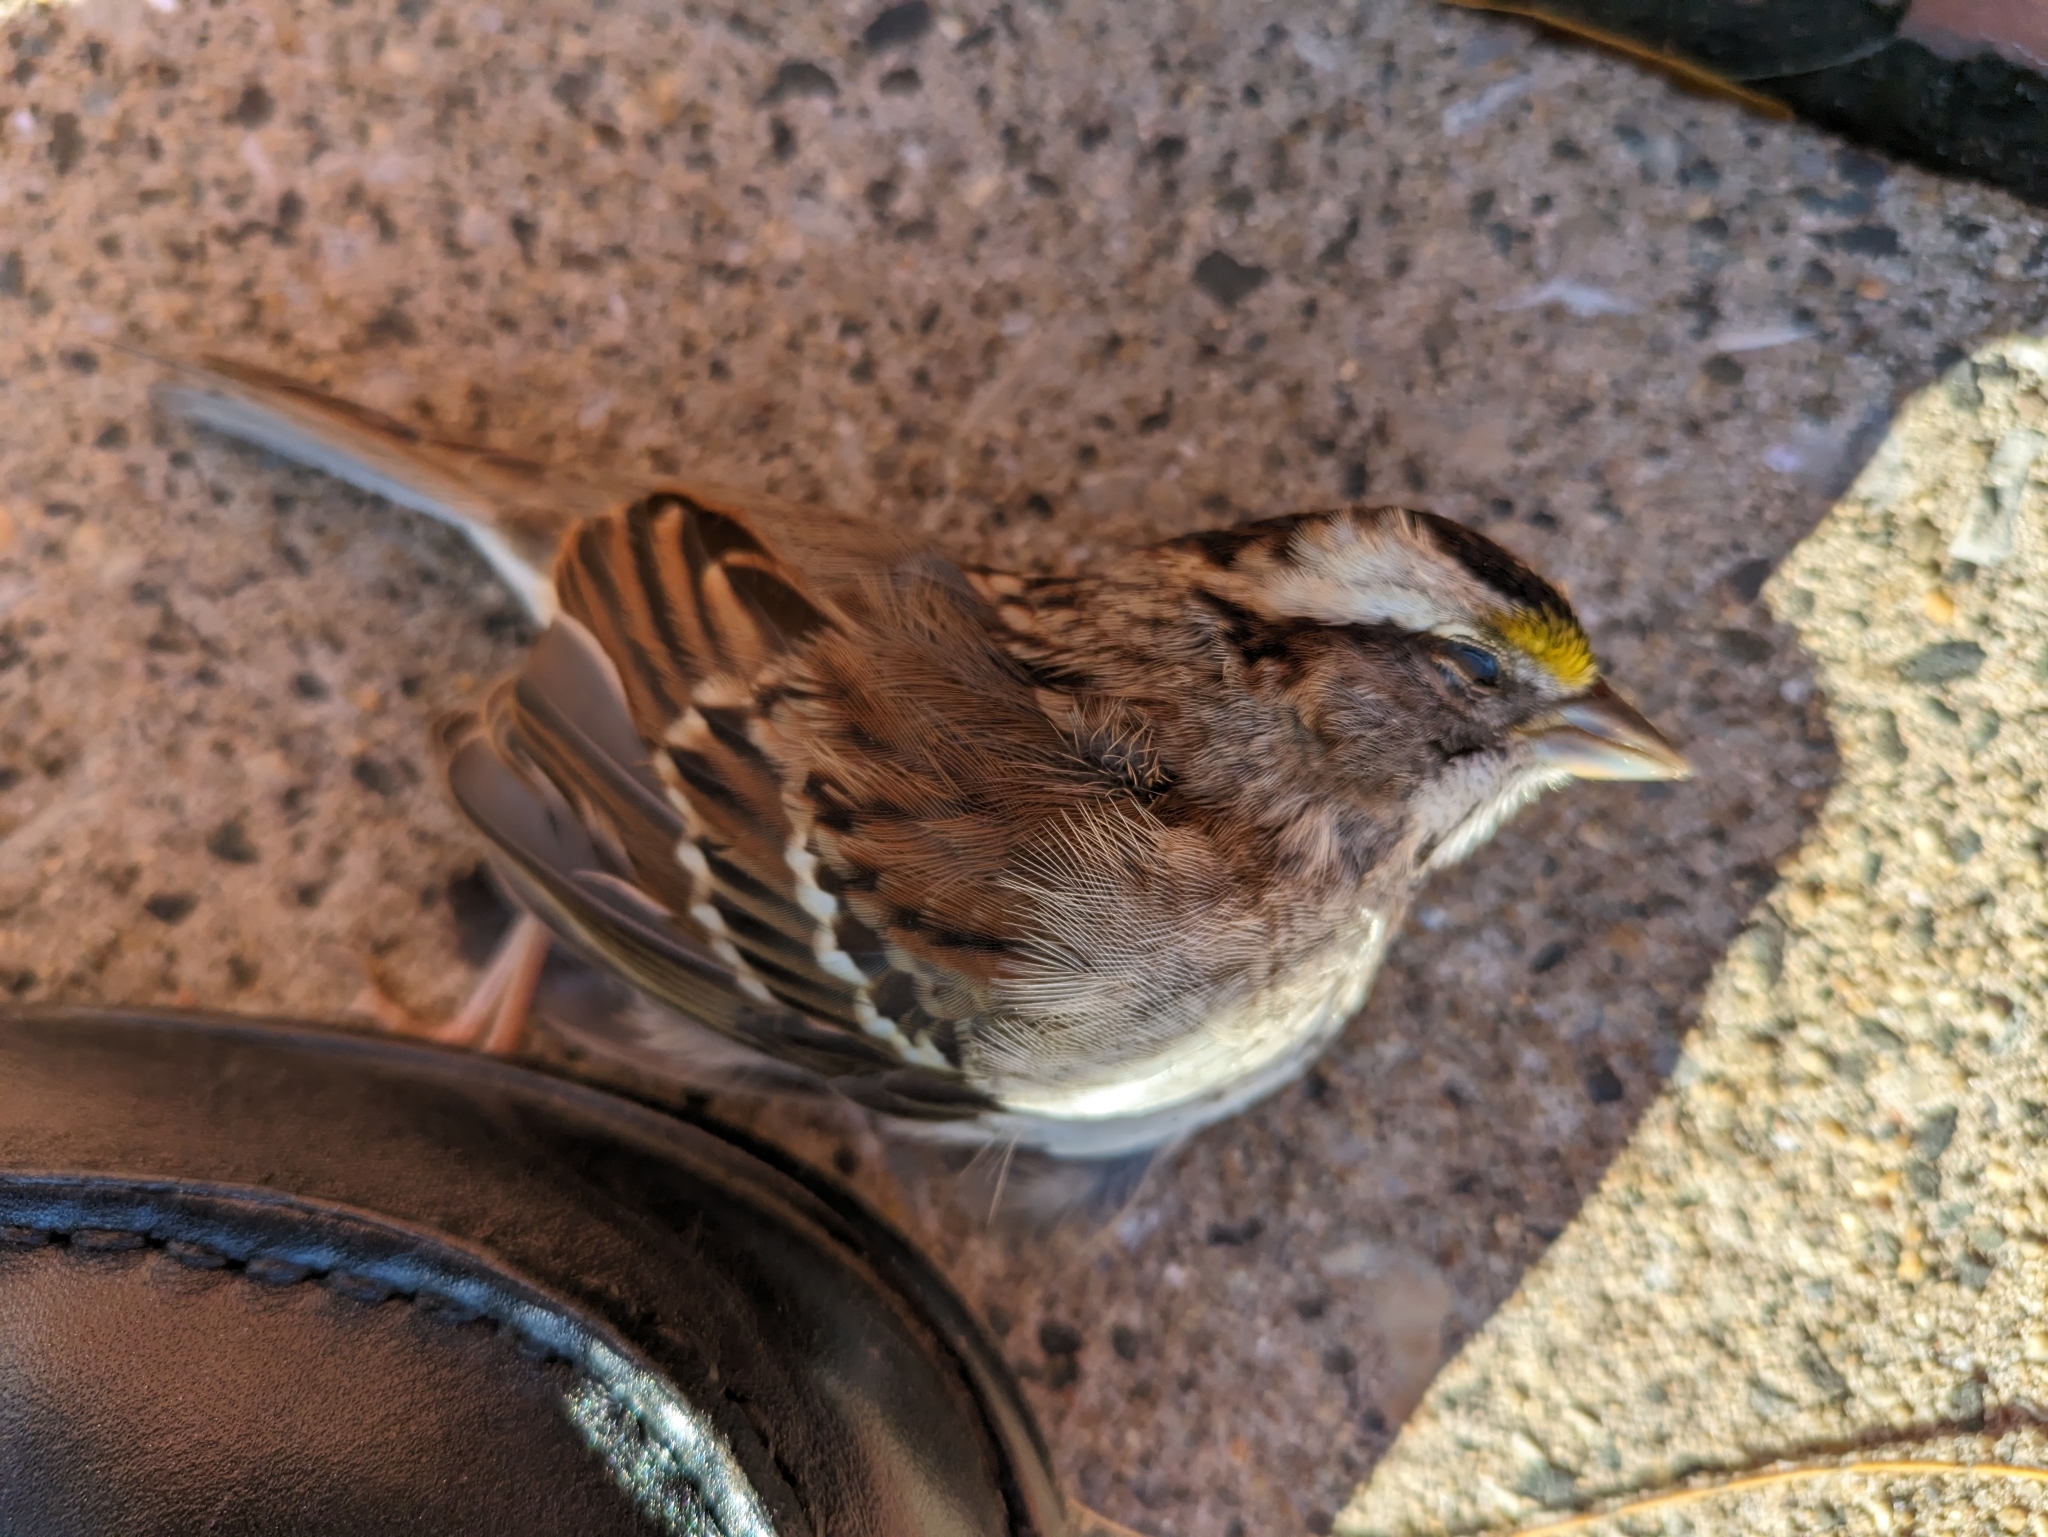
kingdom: Animalia
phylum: Chordata
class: Aves
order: Passeriformes
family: Passerellidae
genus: Zonotrichia
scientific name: Zonotrichia albicollis
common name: White-throated sparrow
